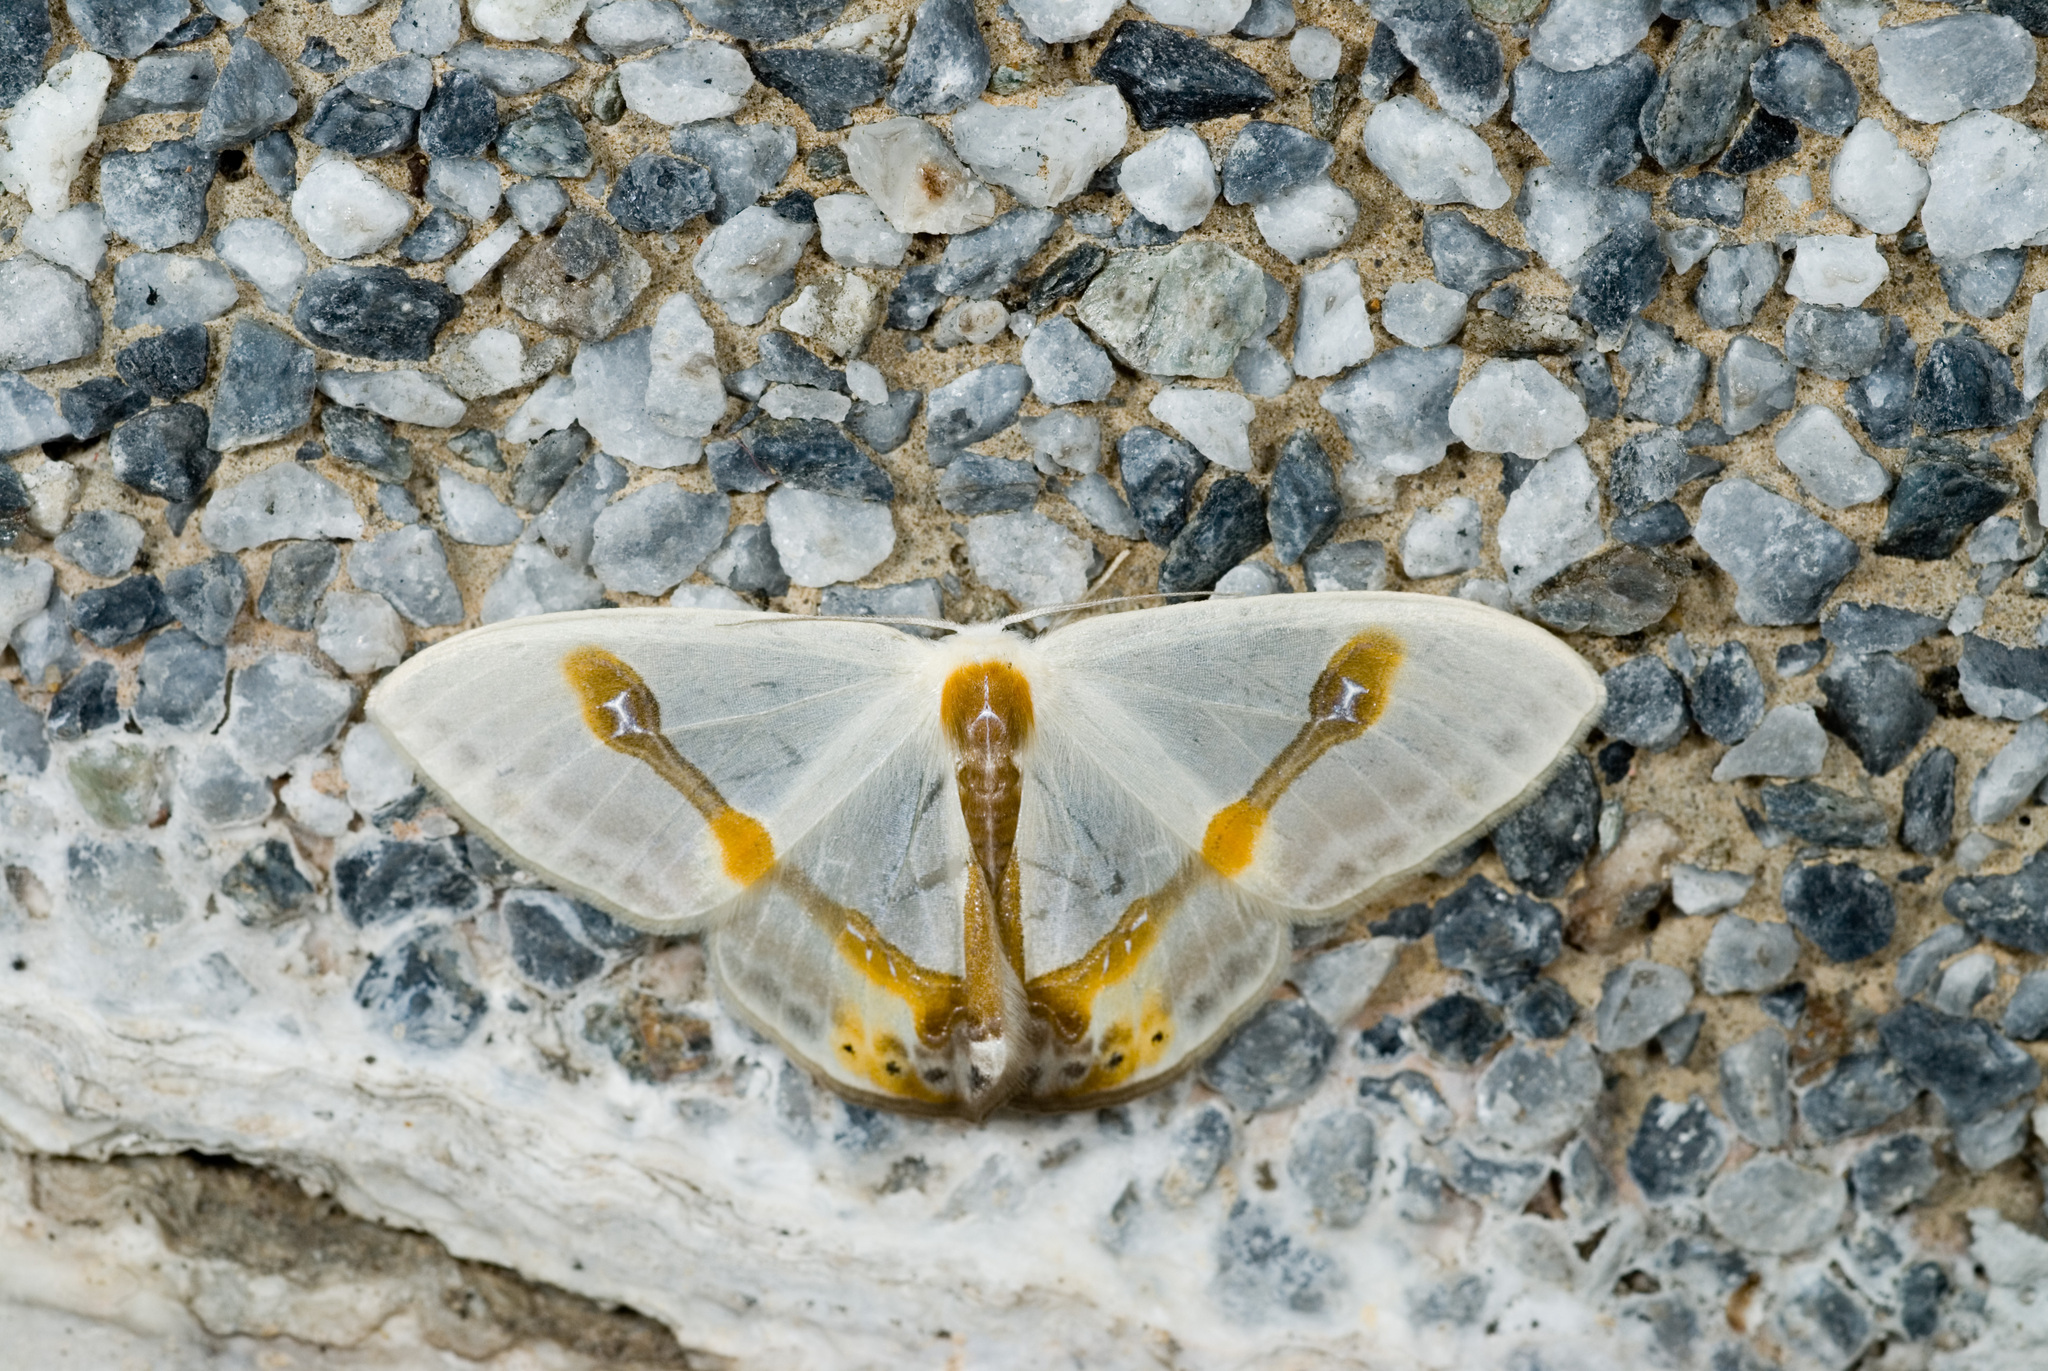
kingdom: Animalia
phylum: Arthropoda
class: Insecta
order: Lepidoptera
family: Drepanidae
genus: Macrocilix
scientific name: Macrocilix mysticata
